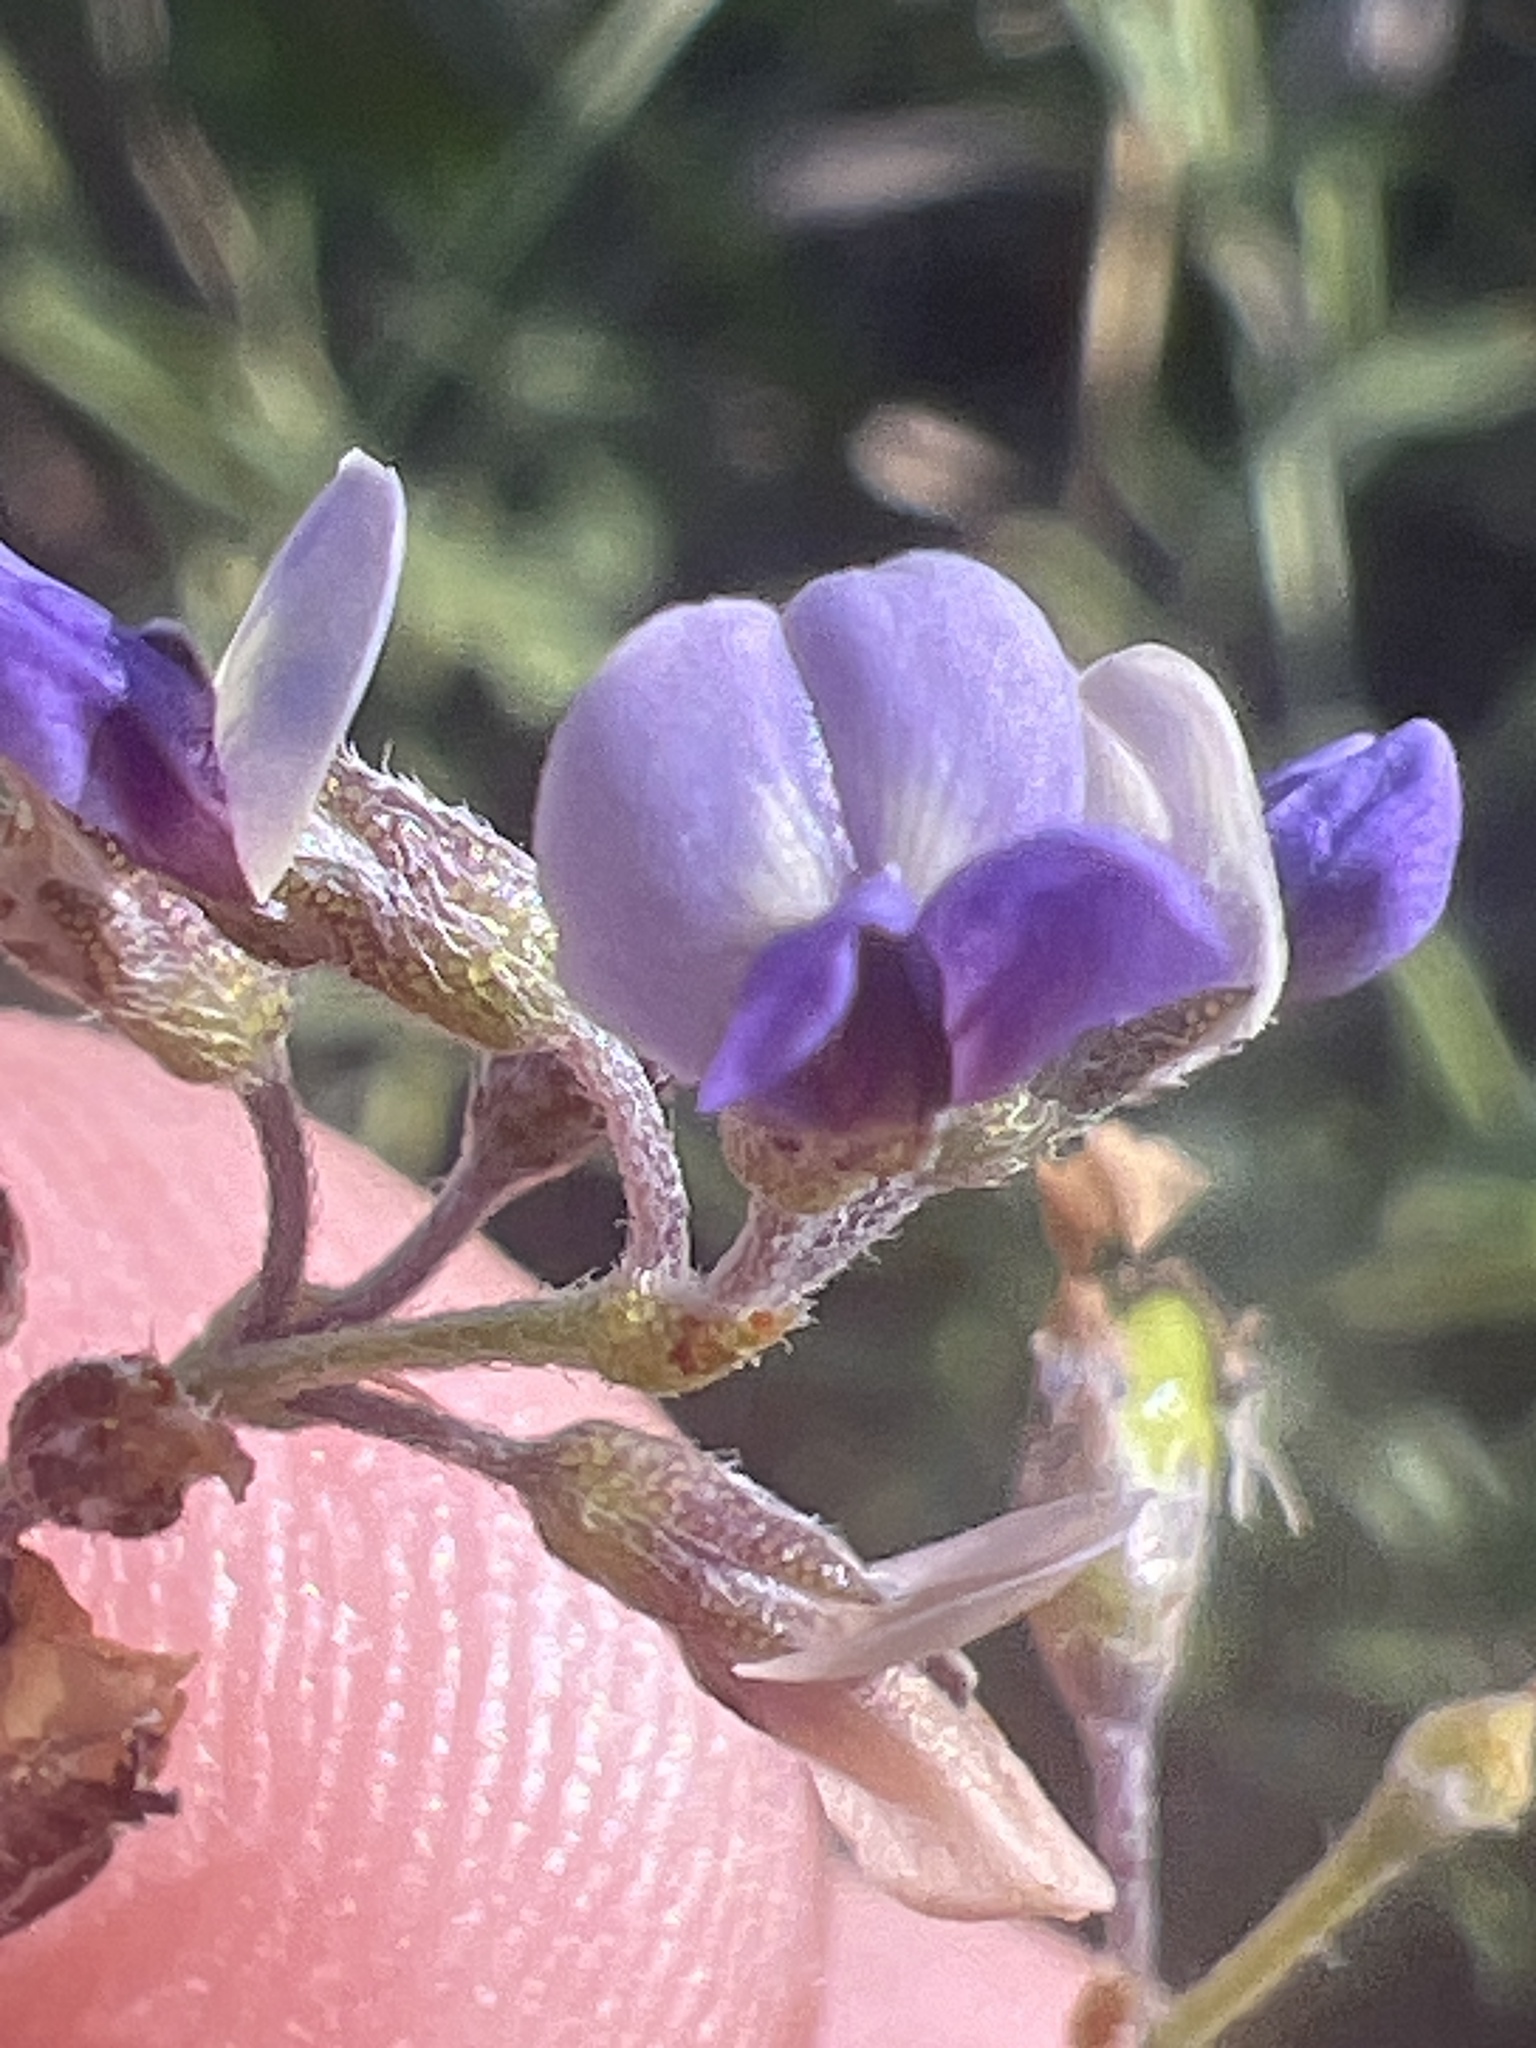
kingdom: Plantae
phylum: Tracheophyta
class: Magnoliopsida
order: Fabales
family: Fabaceae
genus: Pediomelum
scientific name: Pediomelum tenuiflorum
